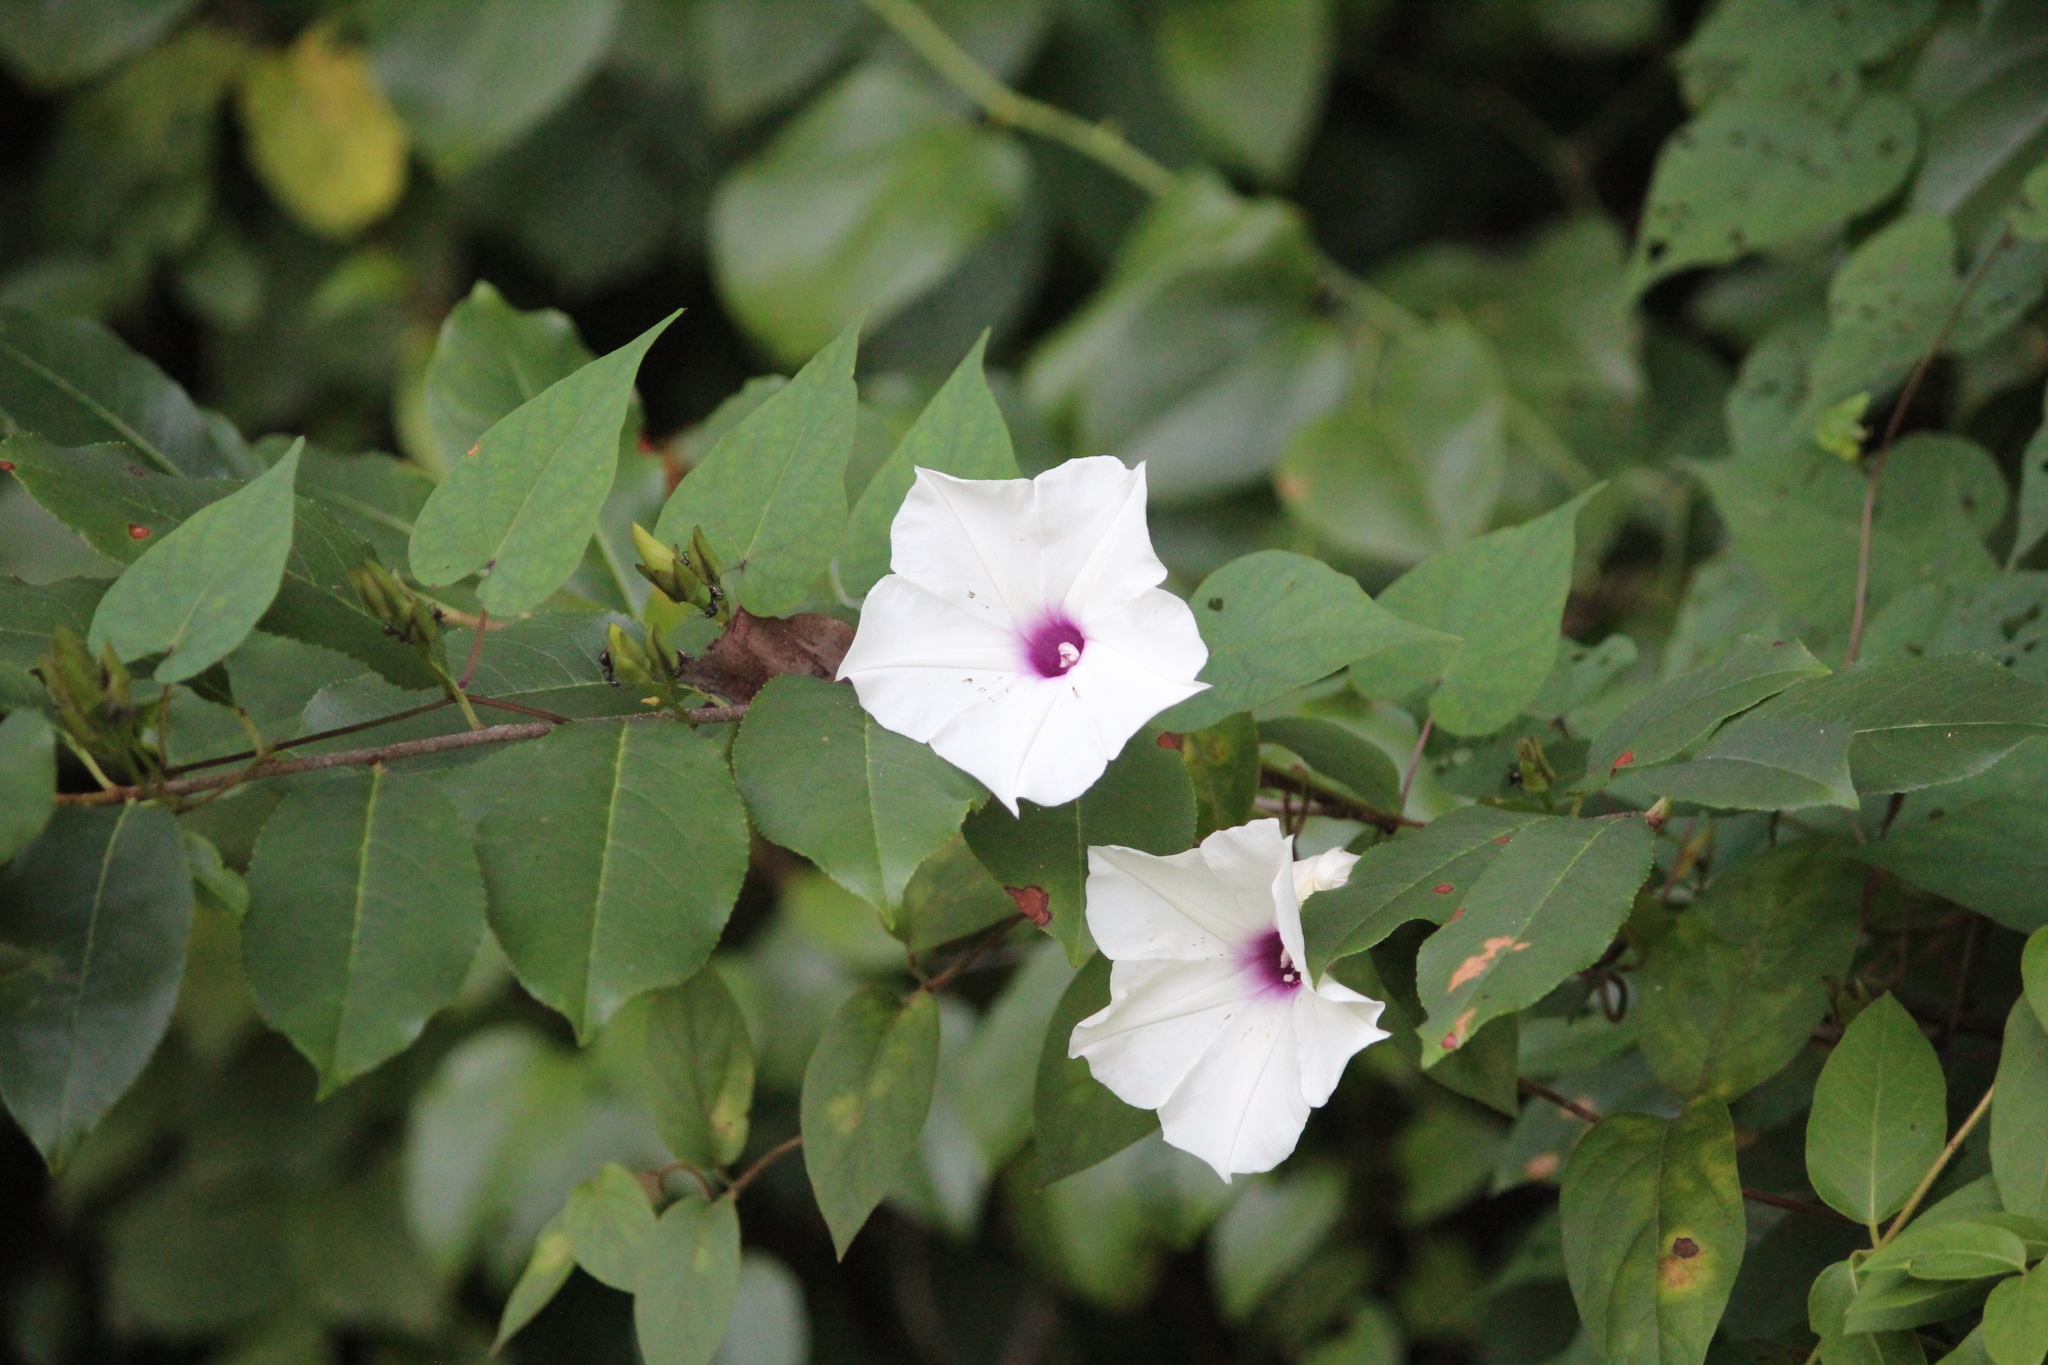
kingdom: Plantae
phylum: Tracheophyta
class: Magnoliopsida
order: Solanales
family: Convolvulaceae
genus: Ipomoea
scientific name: Ipomoea pandurata
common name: Man-of-the-earth
